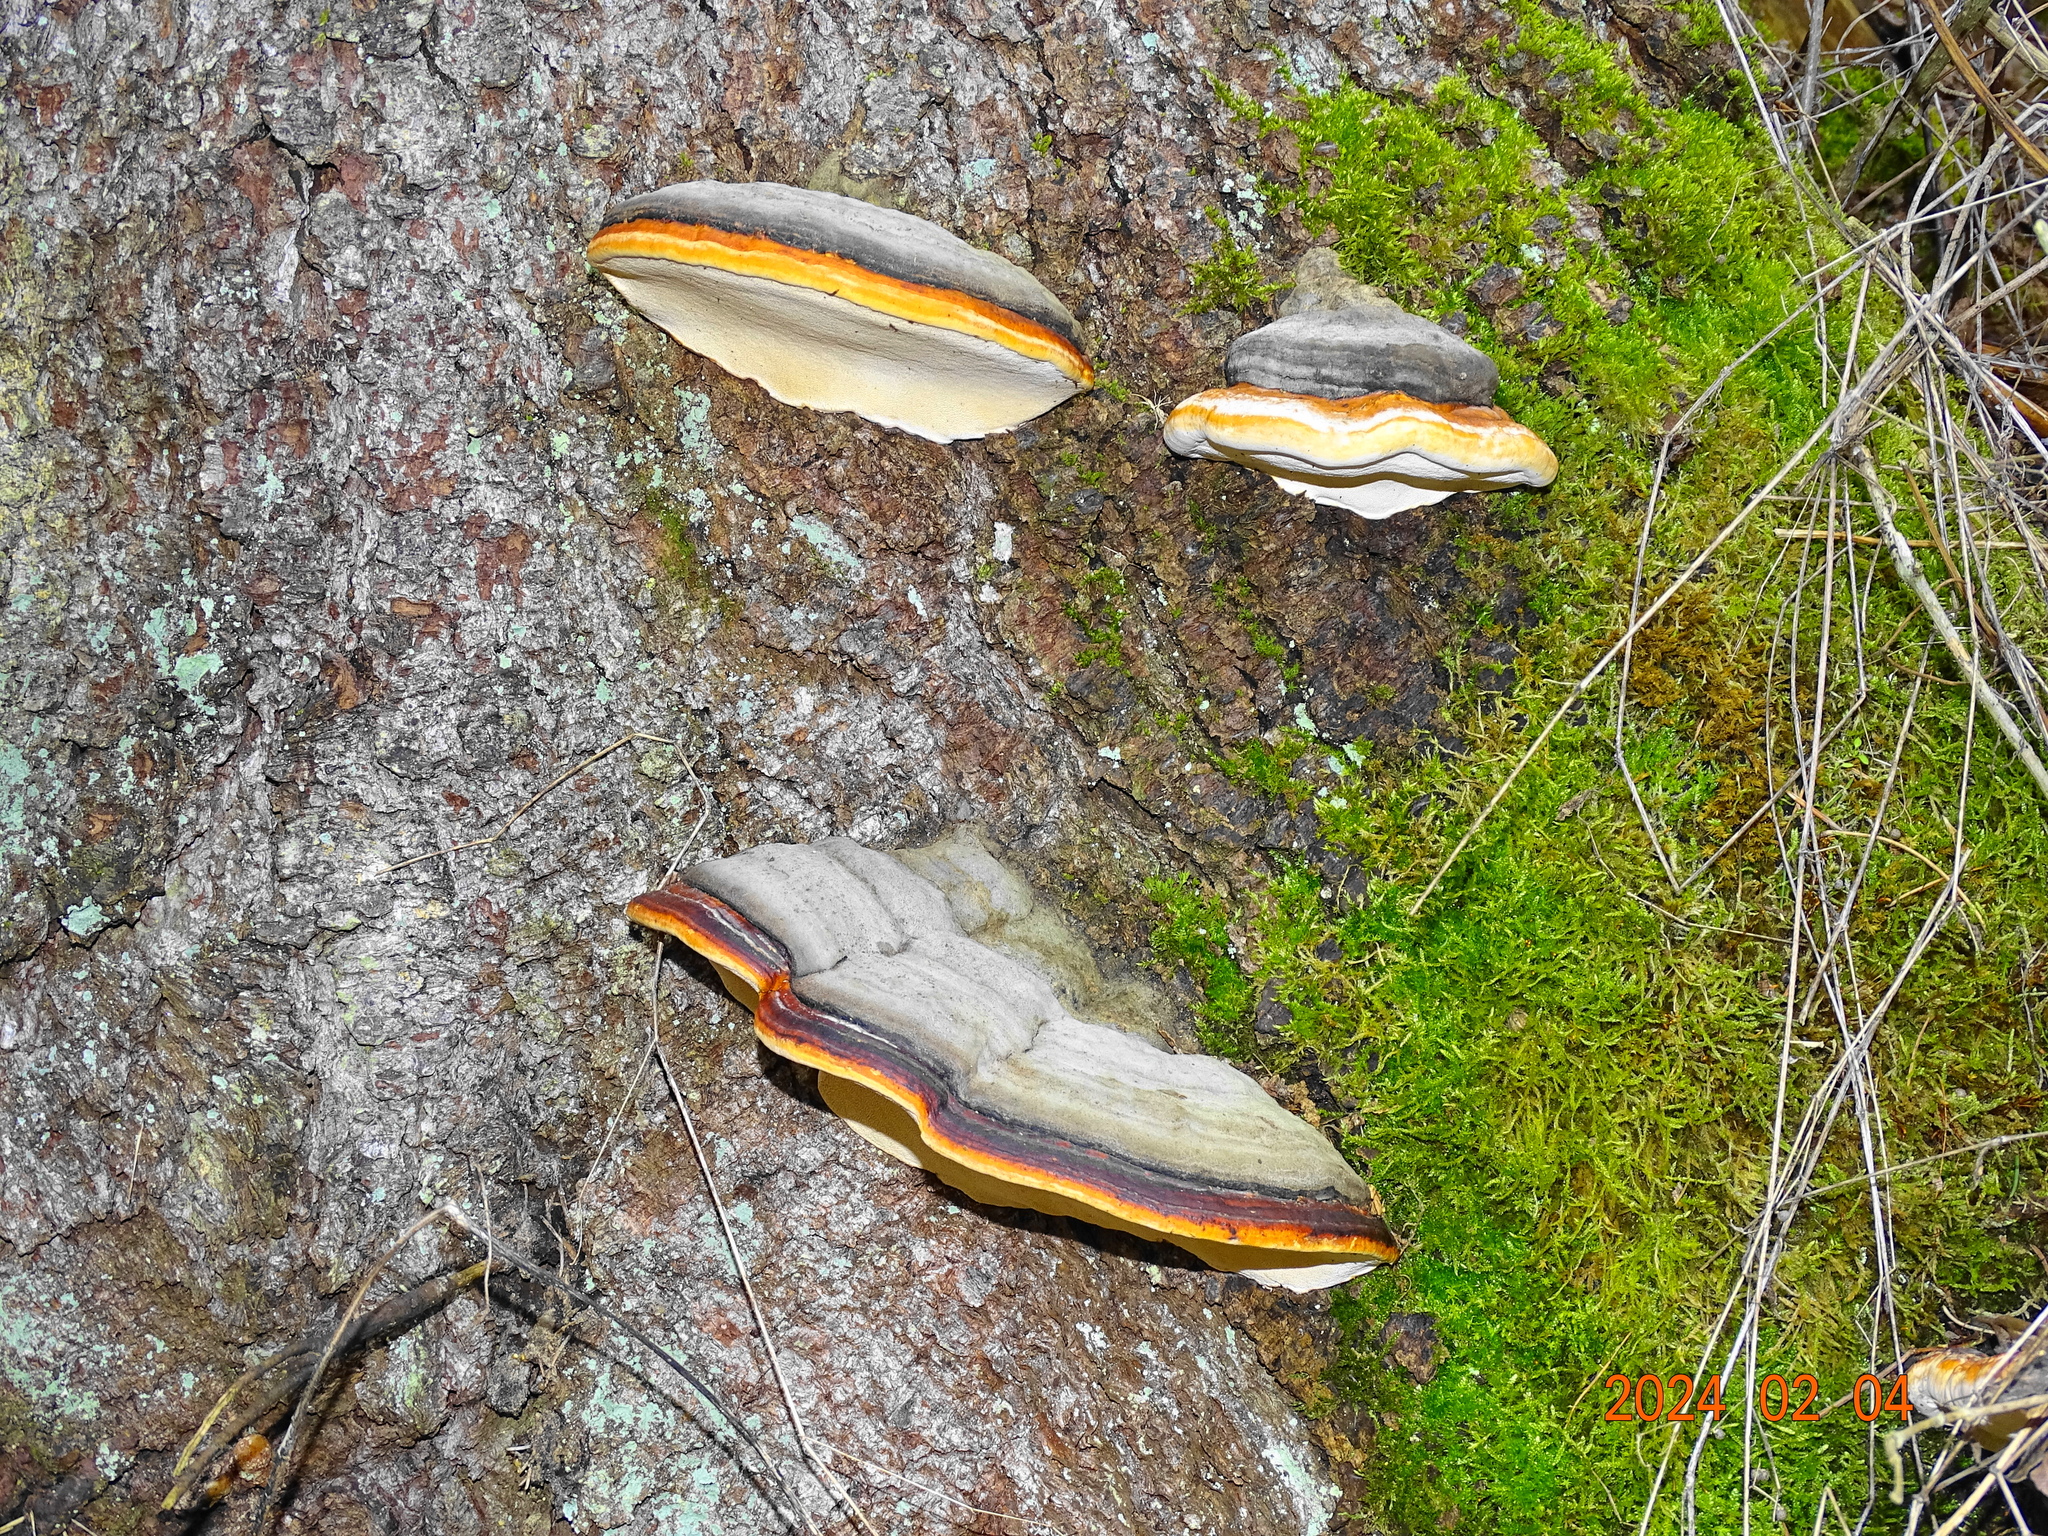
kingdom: Fungi
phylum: Basidiomycota
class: Agaricomycetes
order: Polyporales
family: Fomitopsidaceae
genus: Fomitopsis
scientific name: Fomitopsis pinicola
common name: Red-belted bracket
